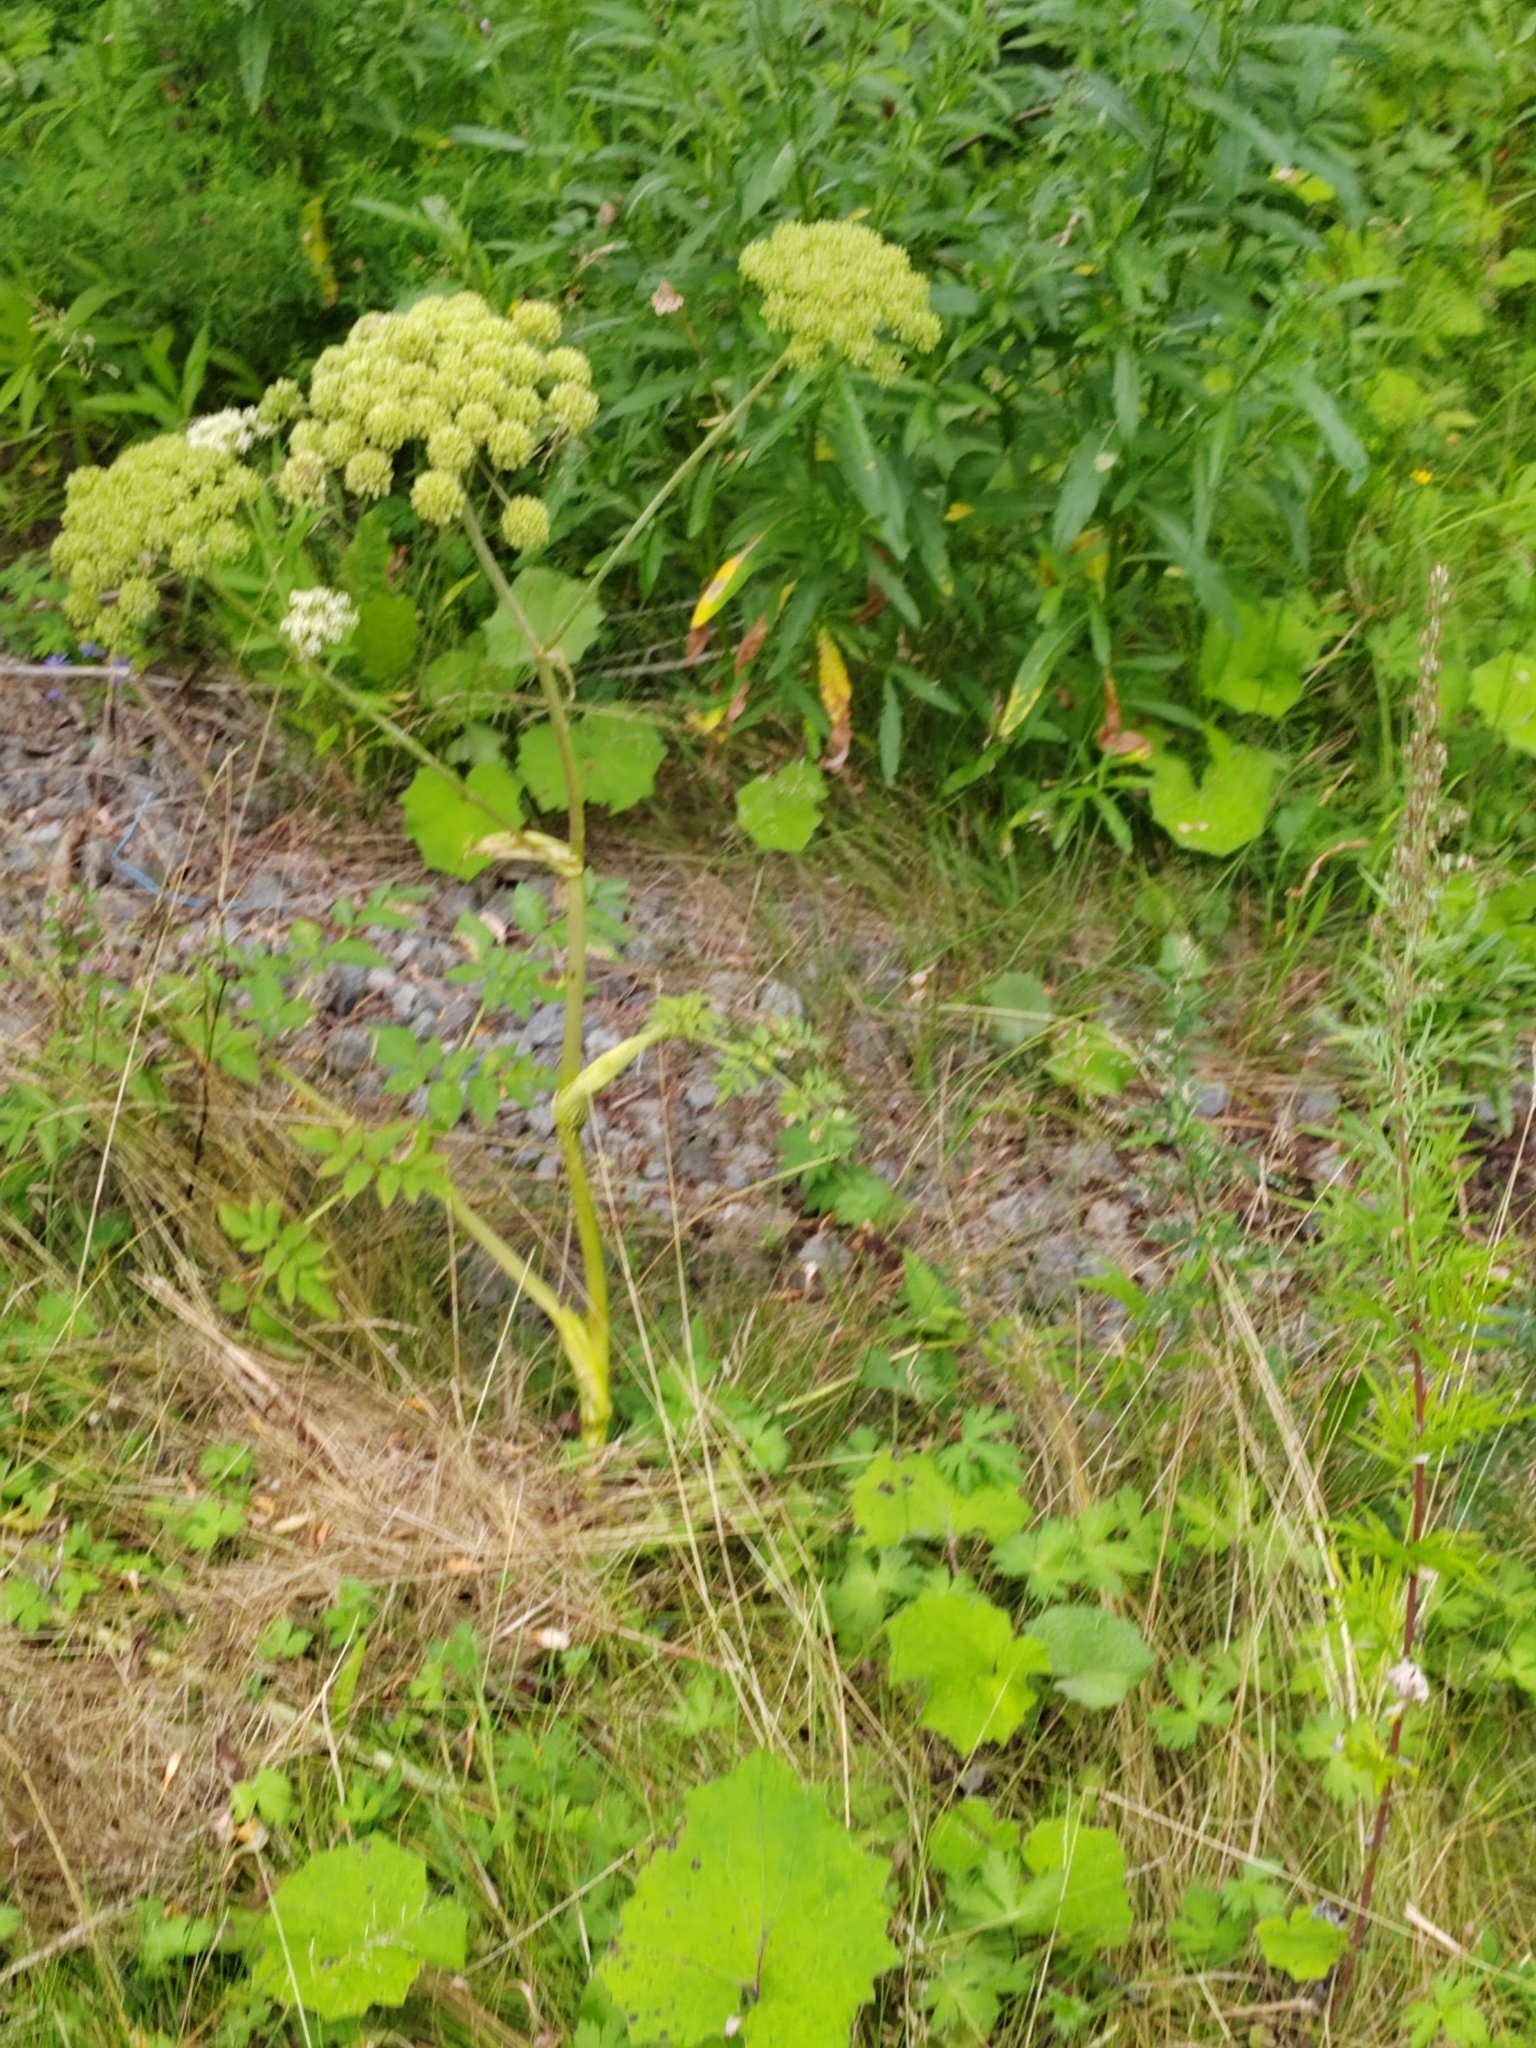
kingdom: Plantae
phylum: Tracheophyta
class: Magnoliopsida
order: Apiales
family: Apiaceae
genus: Angelica
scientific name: Angelica sylvestris
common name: Wild angelica
